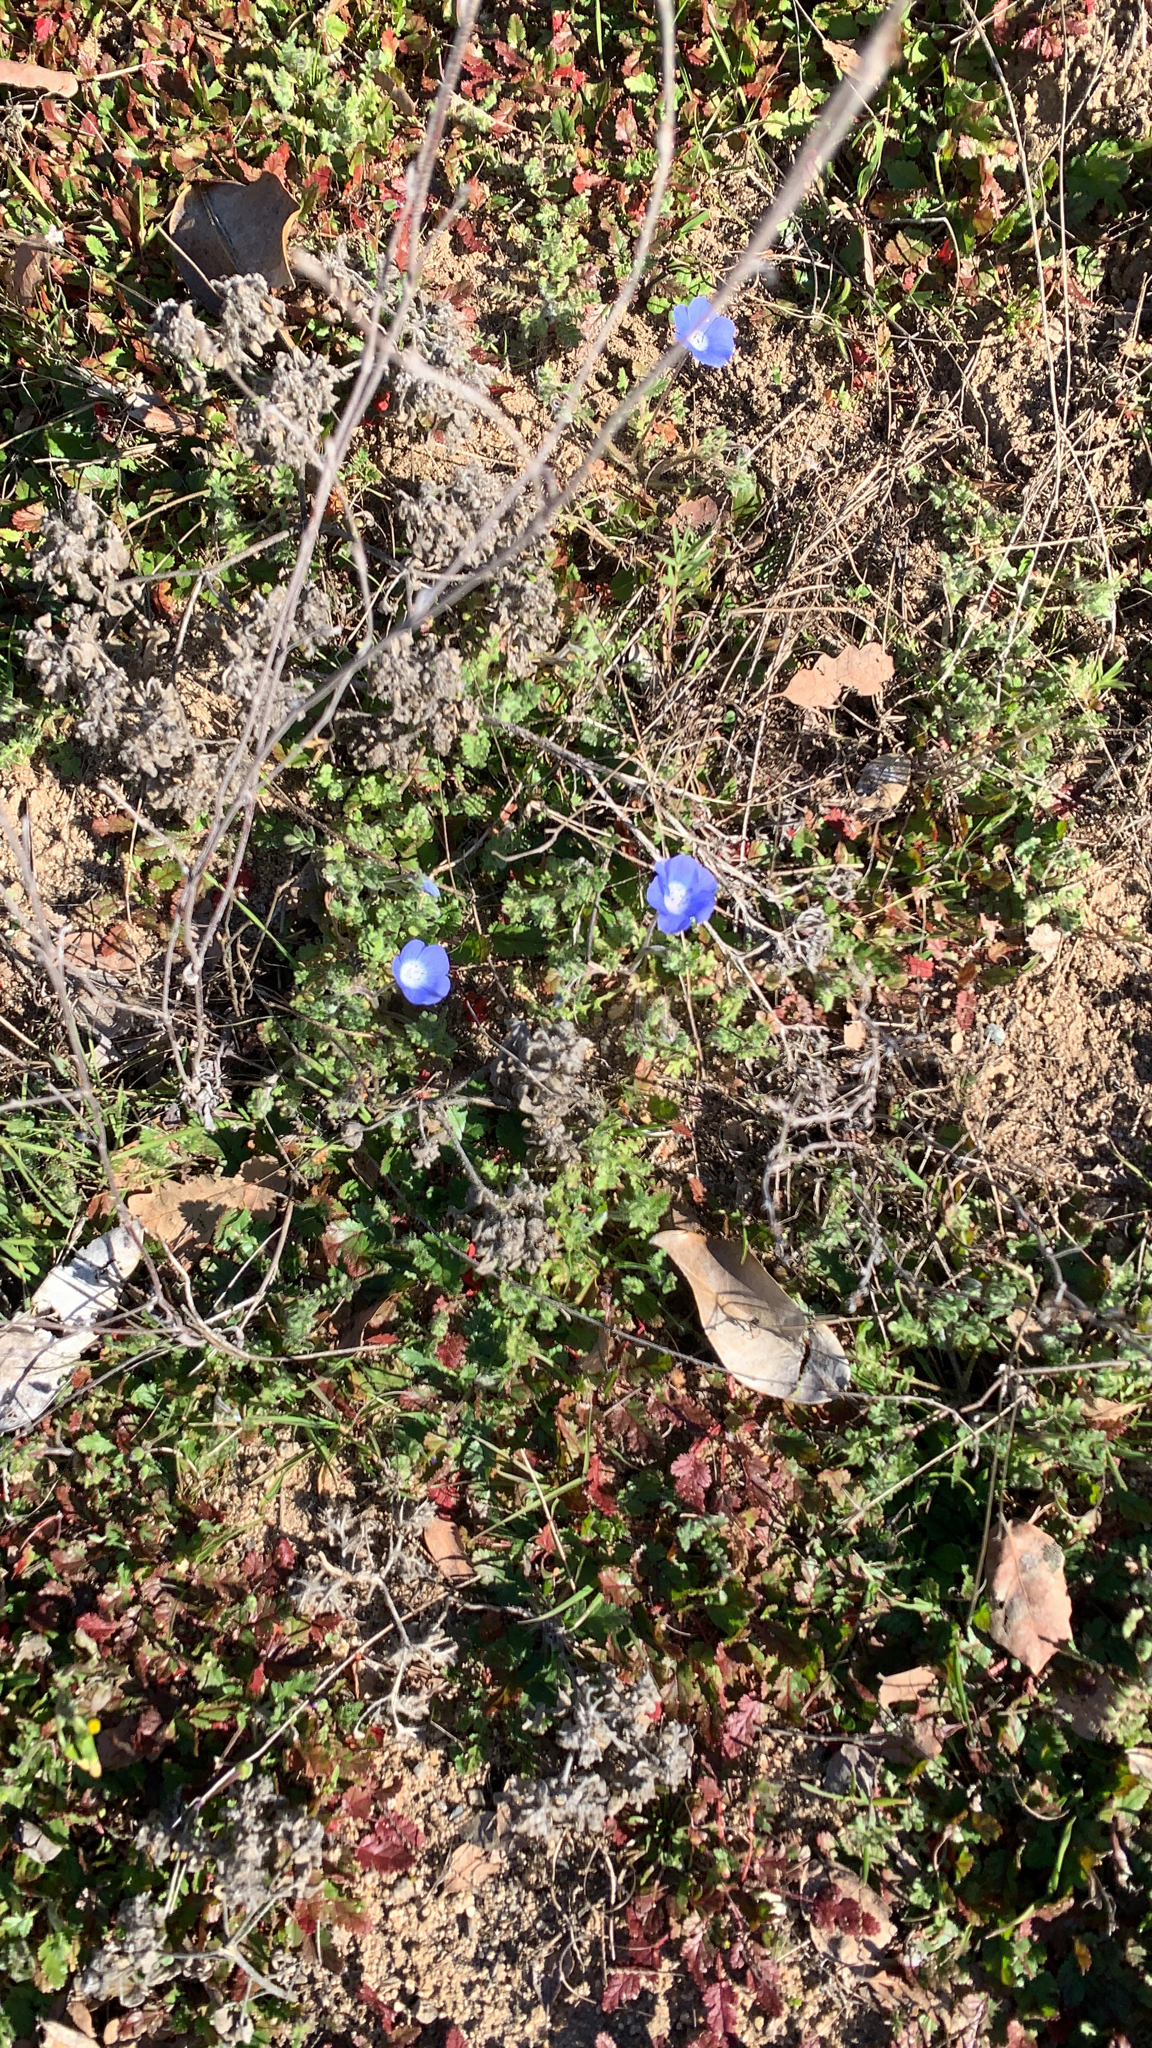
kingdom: Plantae
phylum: Tracheophyta
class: Magnoliopsida
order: Boraginales
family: Hydrophyllaceae
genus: Nemophila
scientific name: Nemophila menziesii
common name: Baby's-blue-eyes
